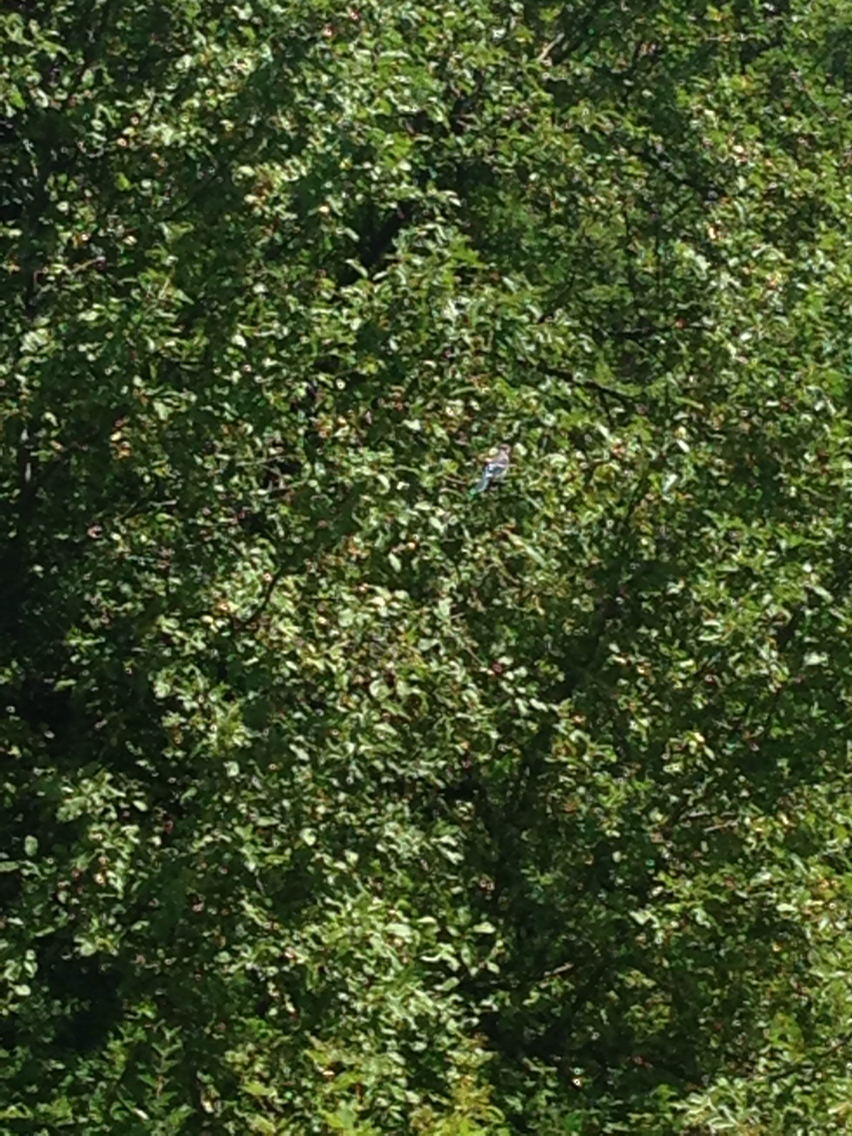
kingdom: Animalia
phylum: Chordata
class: Aves
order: Passeriformes
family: Corvidae
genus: Cyanocitta
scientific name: Cyanocitta cristata
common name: Blue jay
